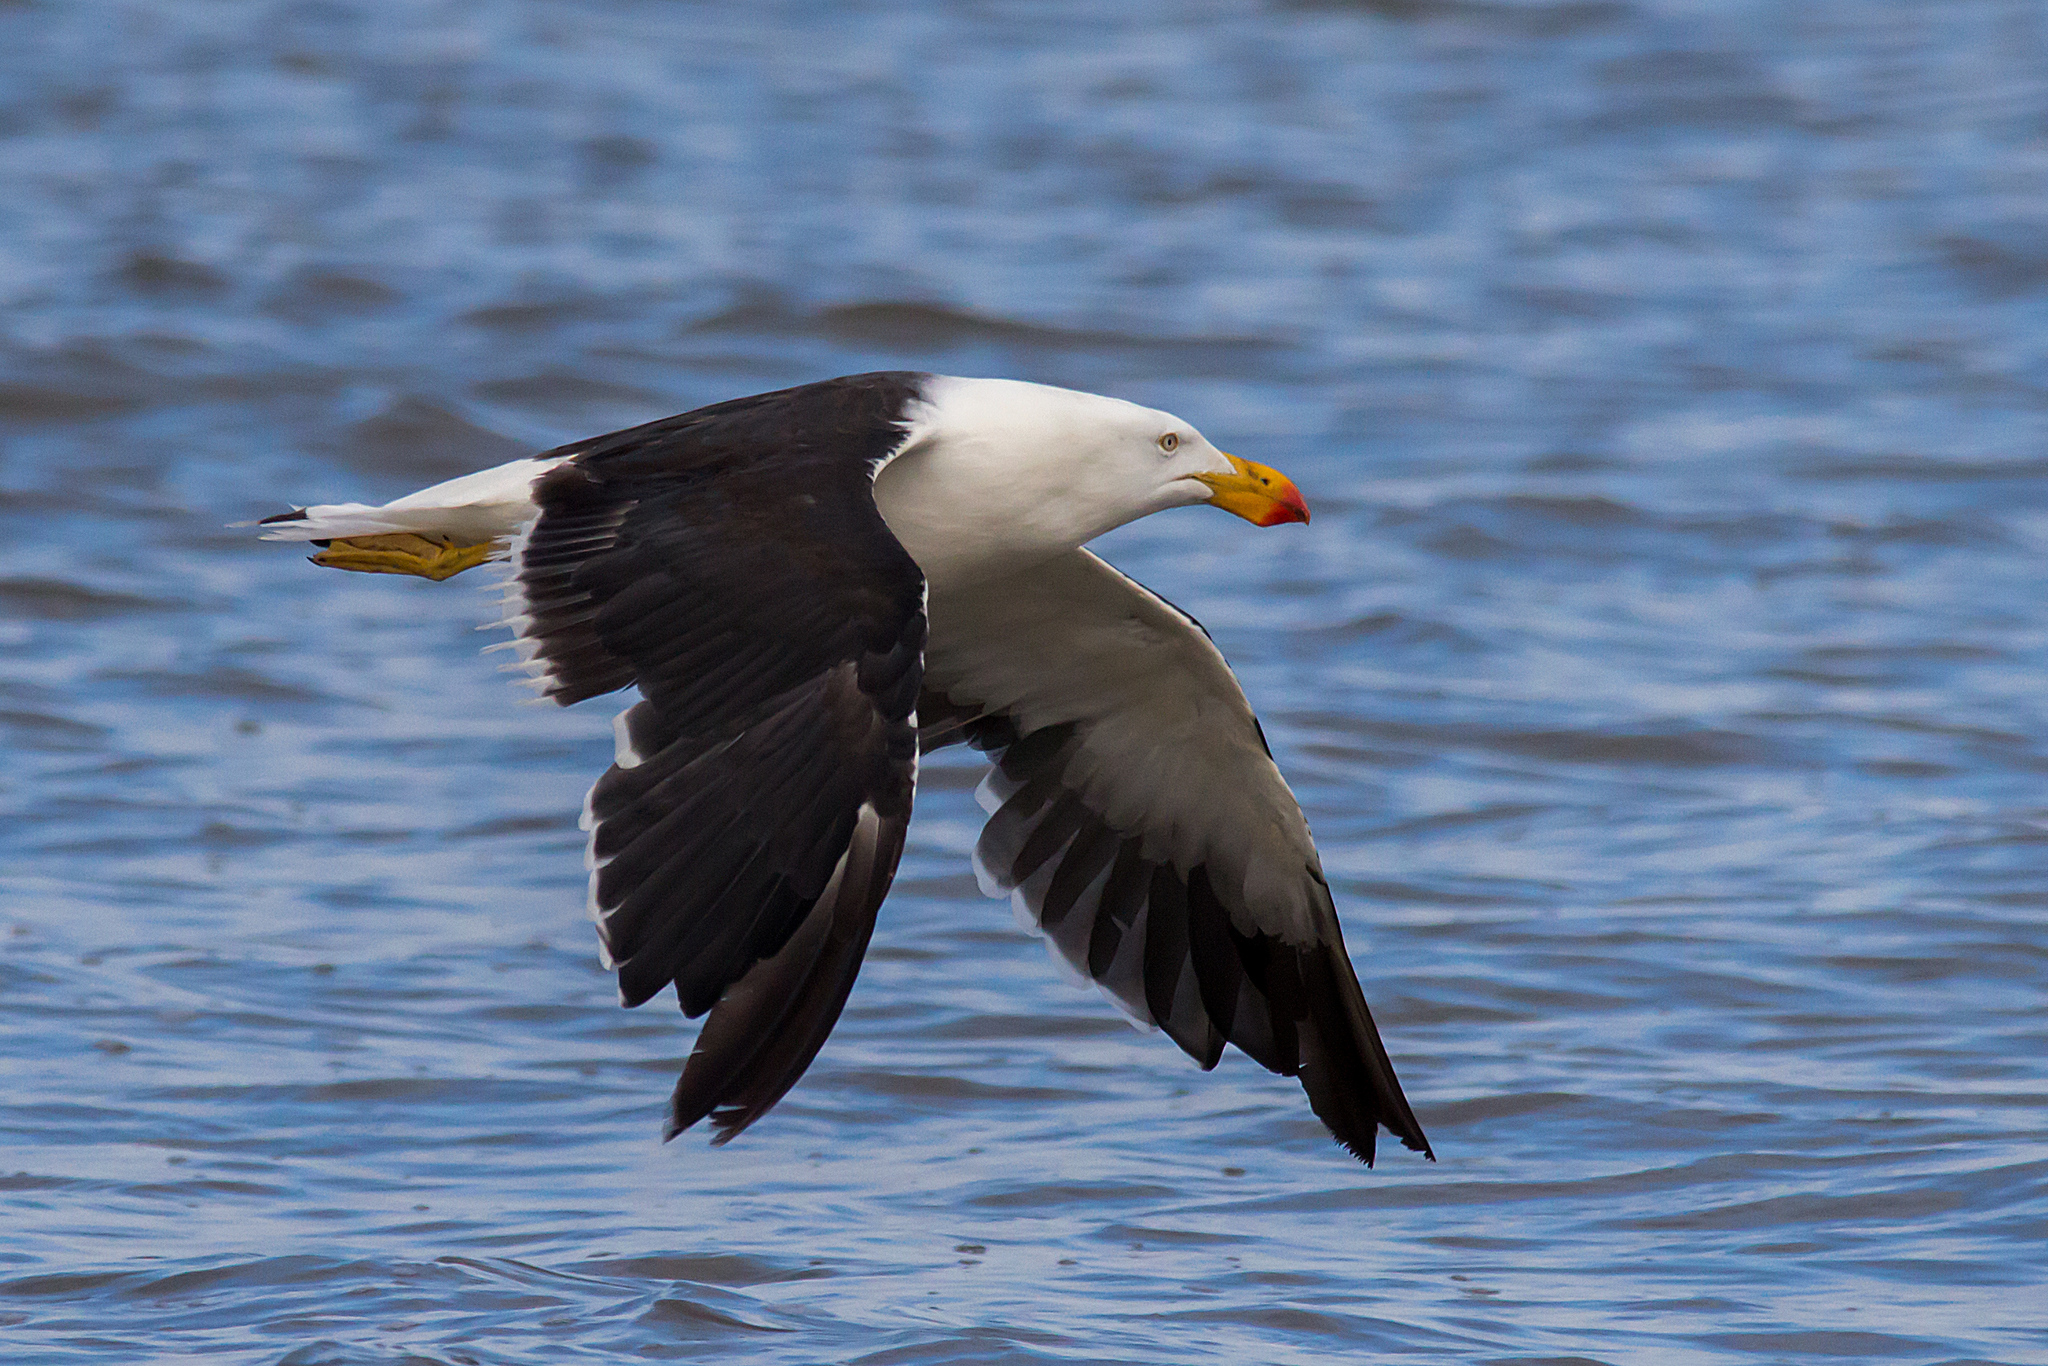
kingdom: Animalia
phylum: Chordata
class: Aves
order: Charadriiformes
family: Laridae
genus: Larus
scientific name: Larus pacificus
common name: Pacific gull
